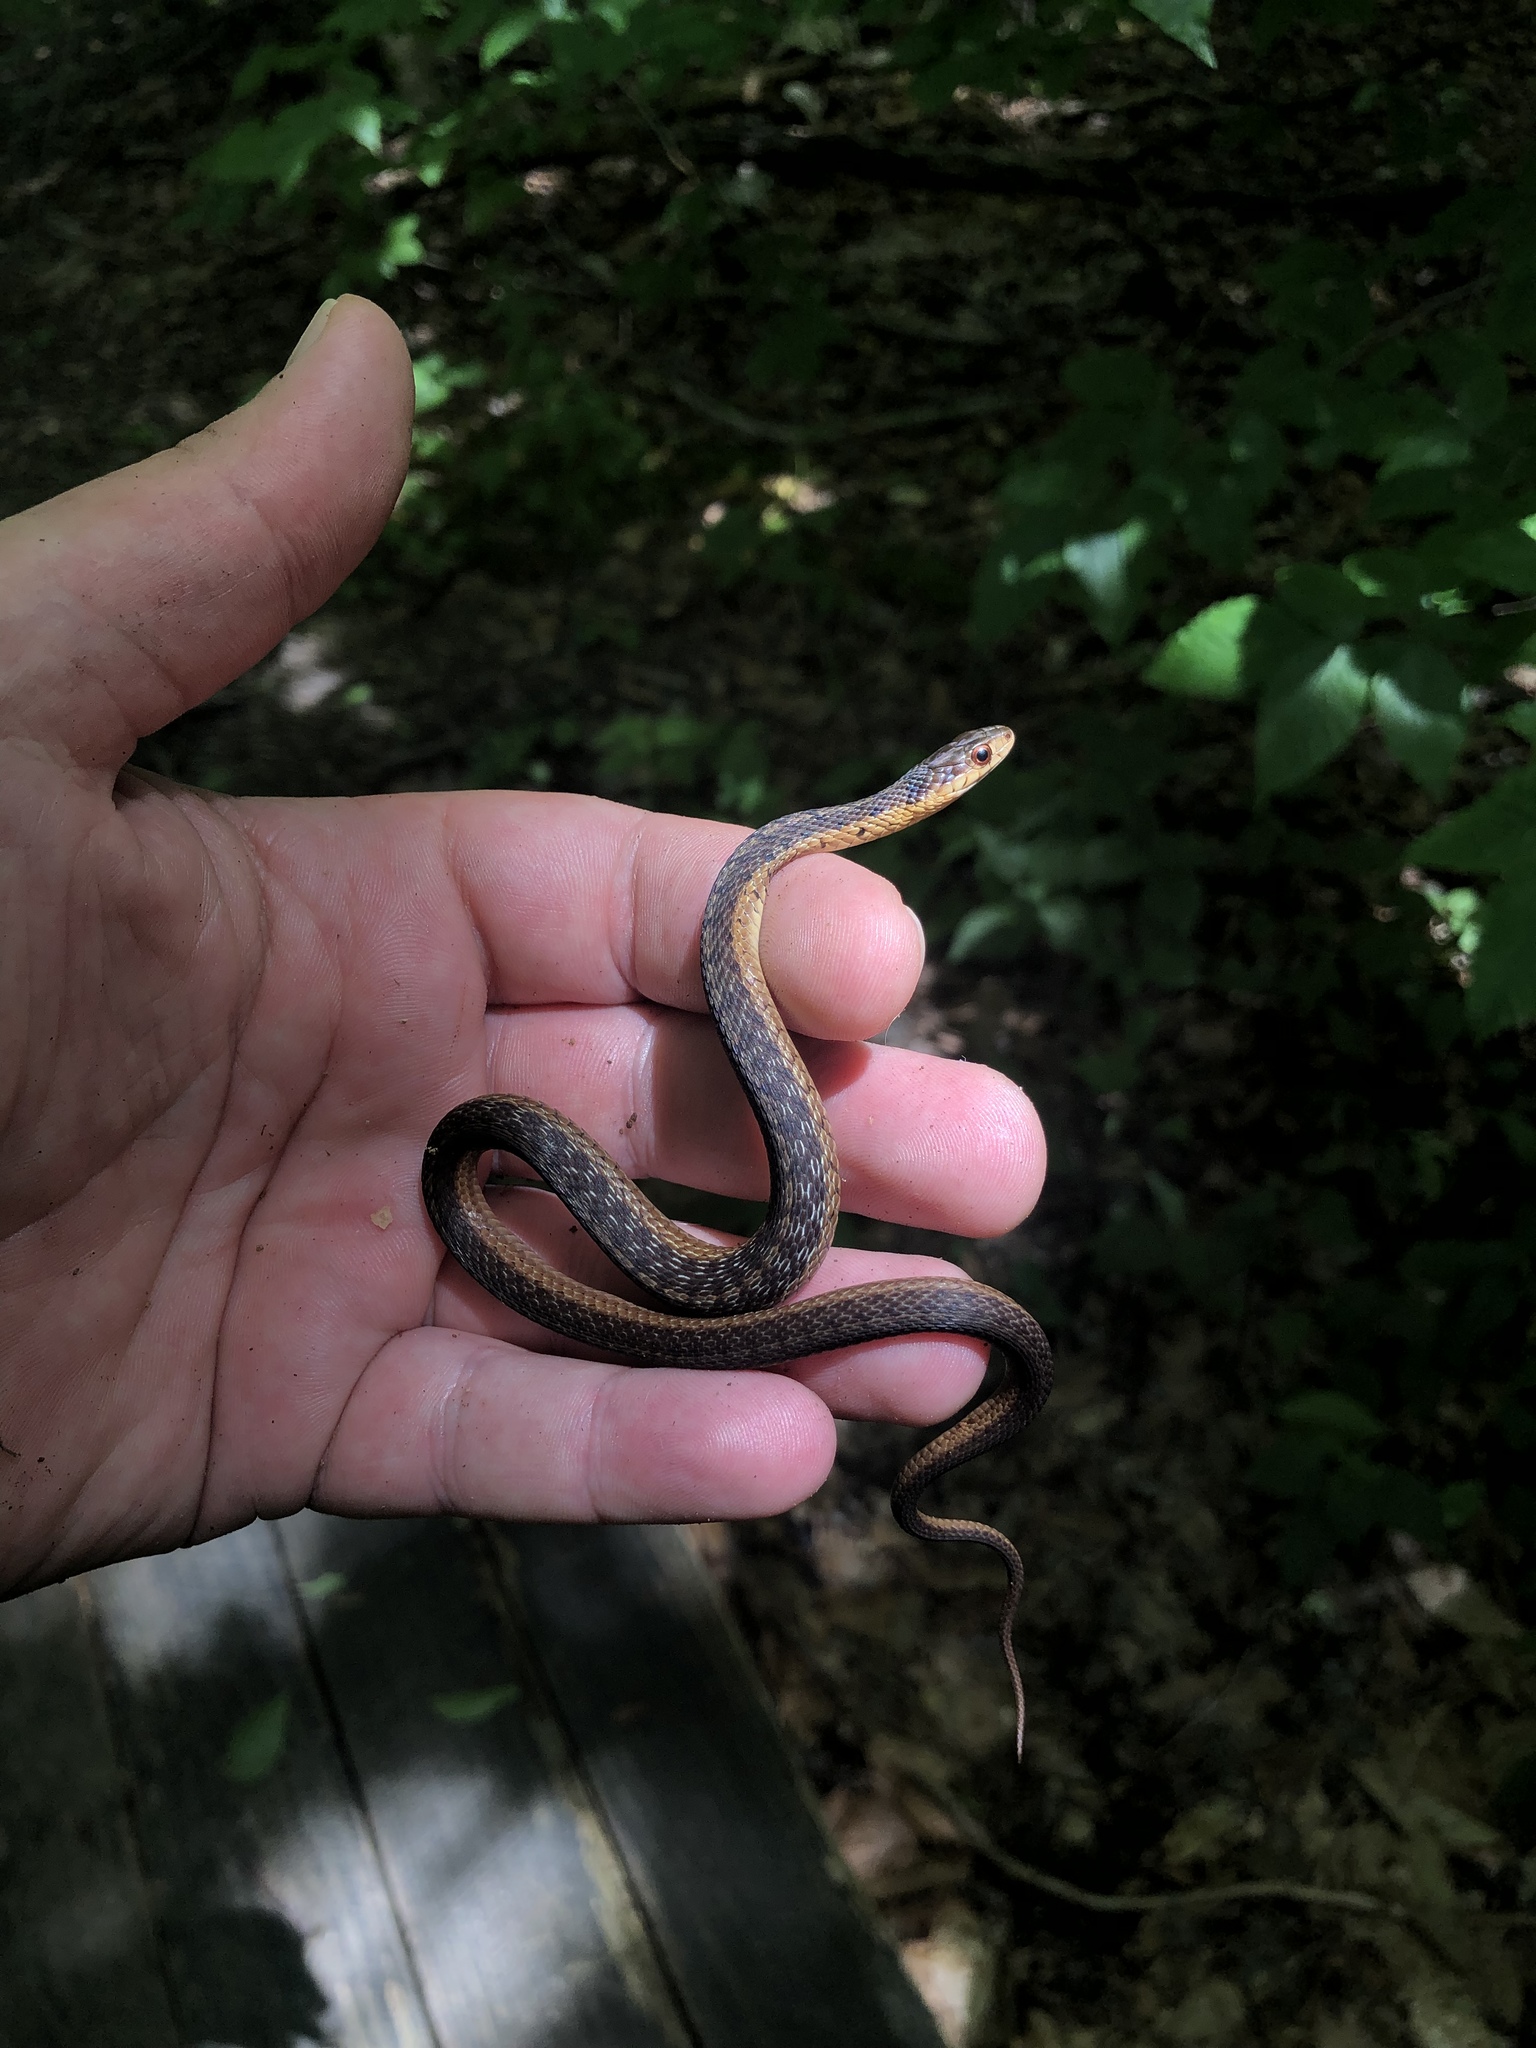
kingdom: Animalia
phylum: Chordata
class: Squamata
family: Colubridae
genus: Thamnophis
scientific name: Thamnophis sirtalis
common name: Common garter snake
